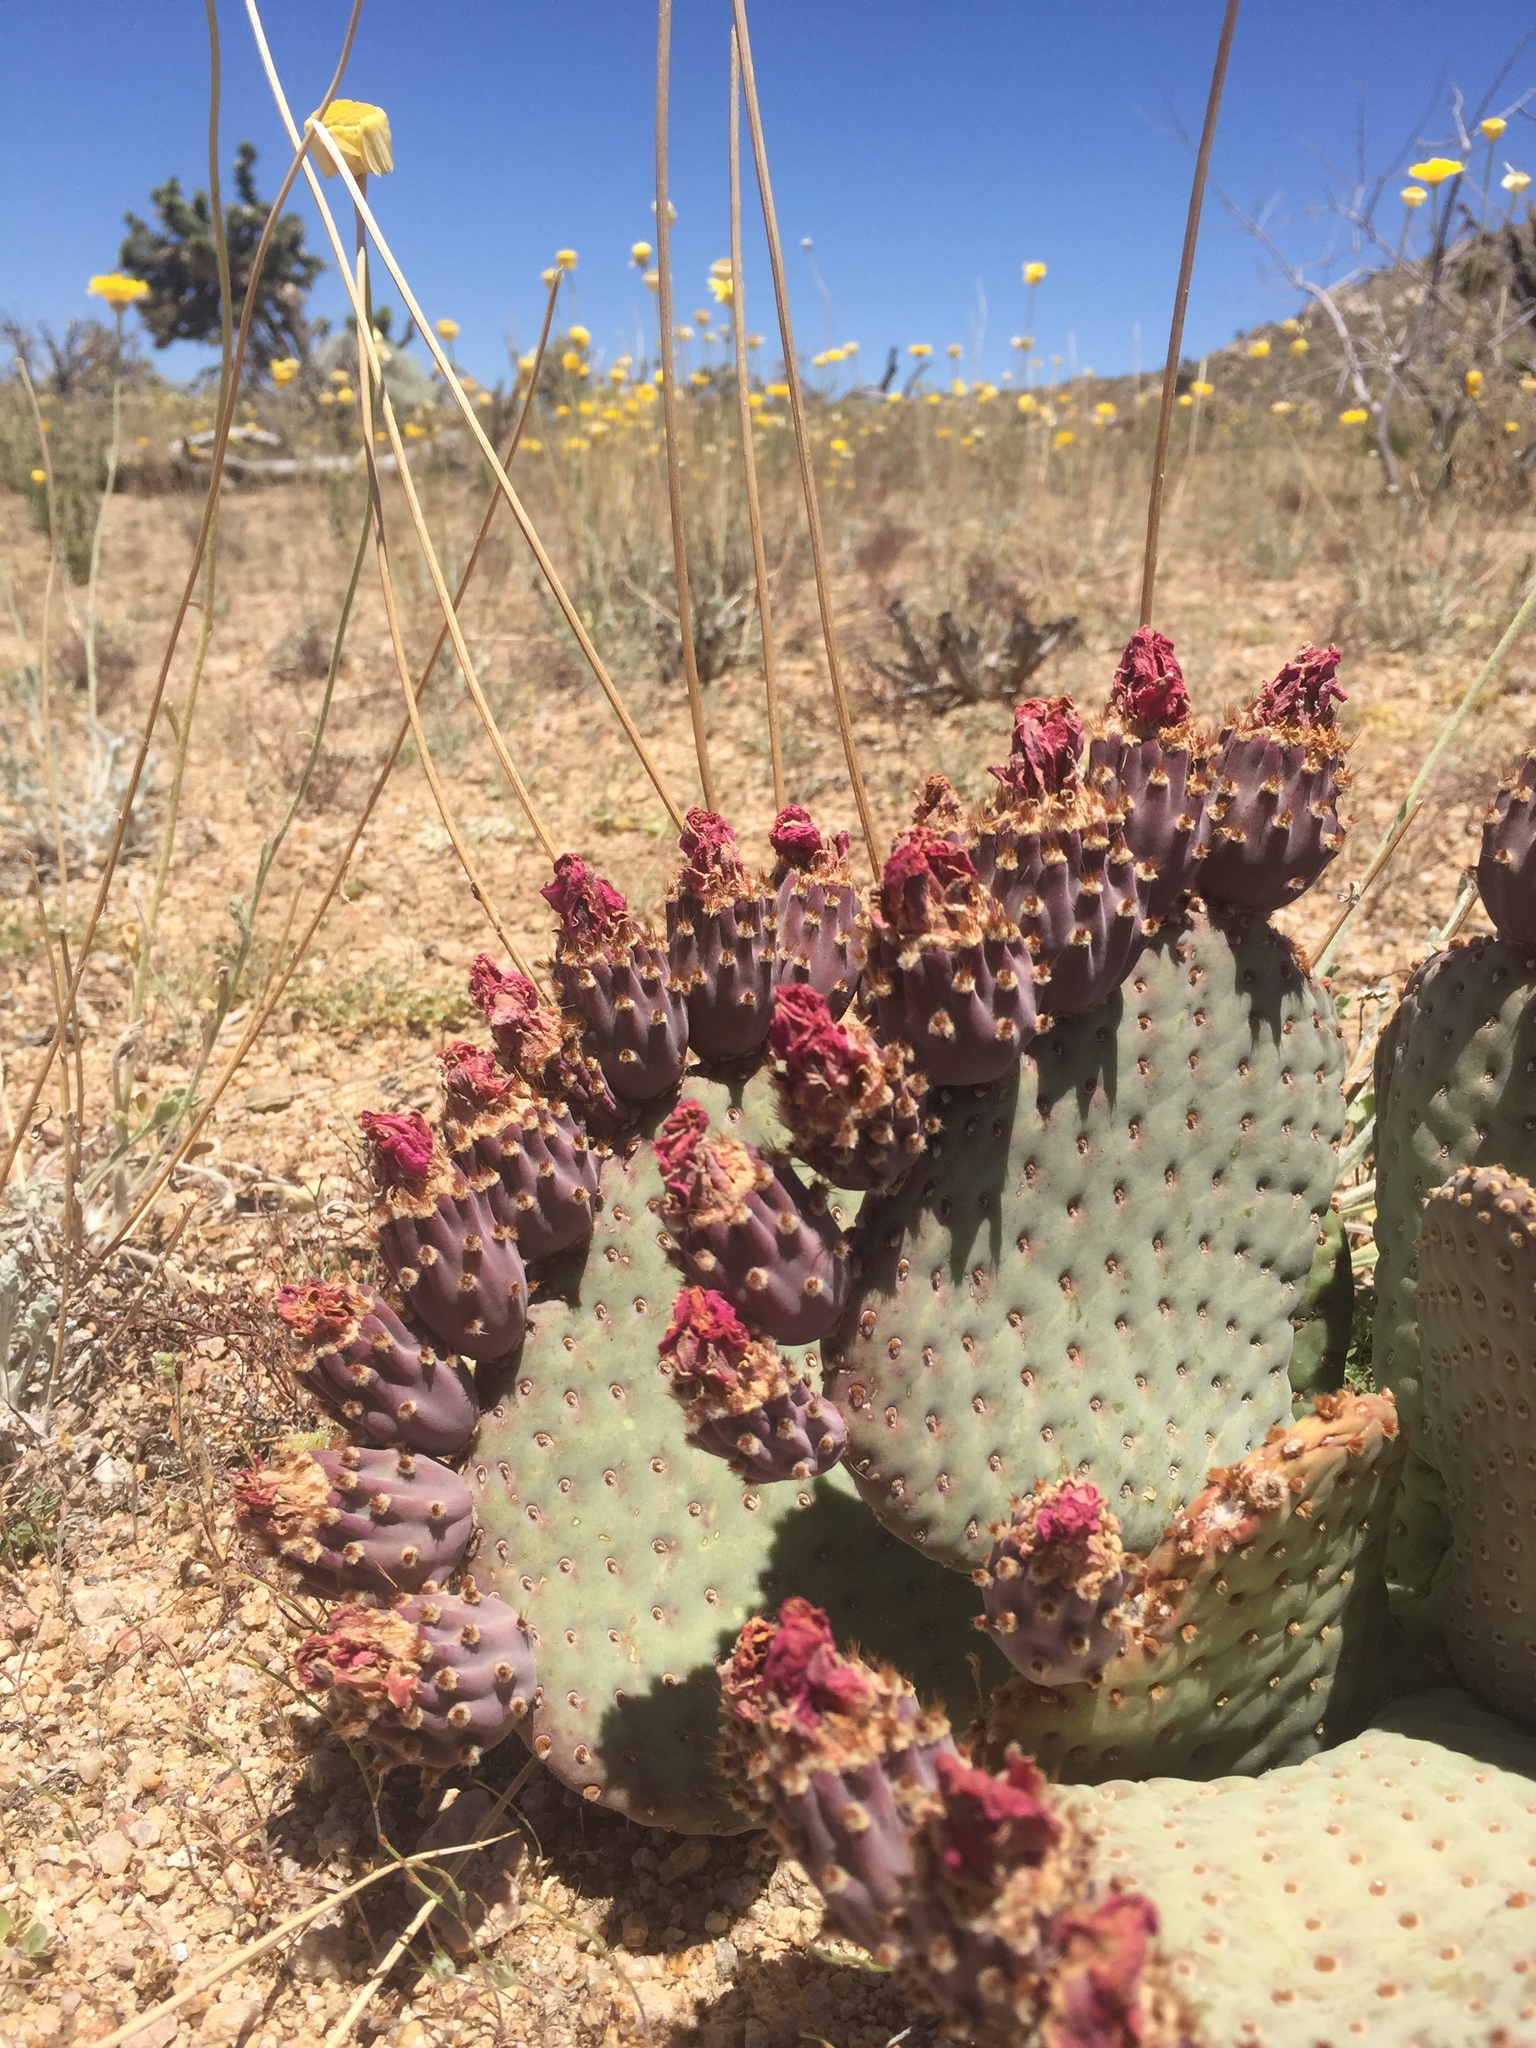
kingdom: Plantae
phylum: Tracheophyta
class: Magnoliopsida
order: Caryophyllales
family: Cactaceae
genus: Opuntia
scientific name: Opuntia basilaris
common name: Beavertail prickly-pear
